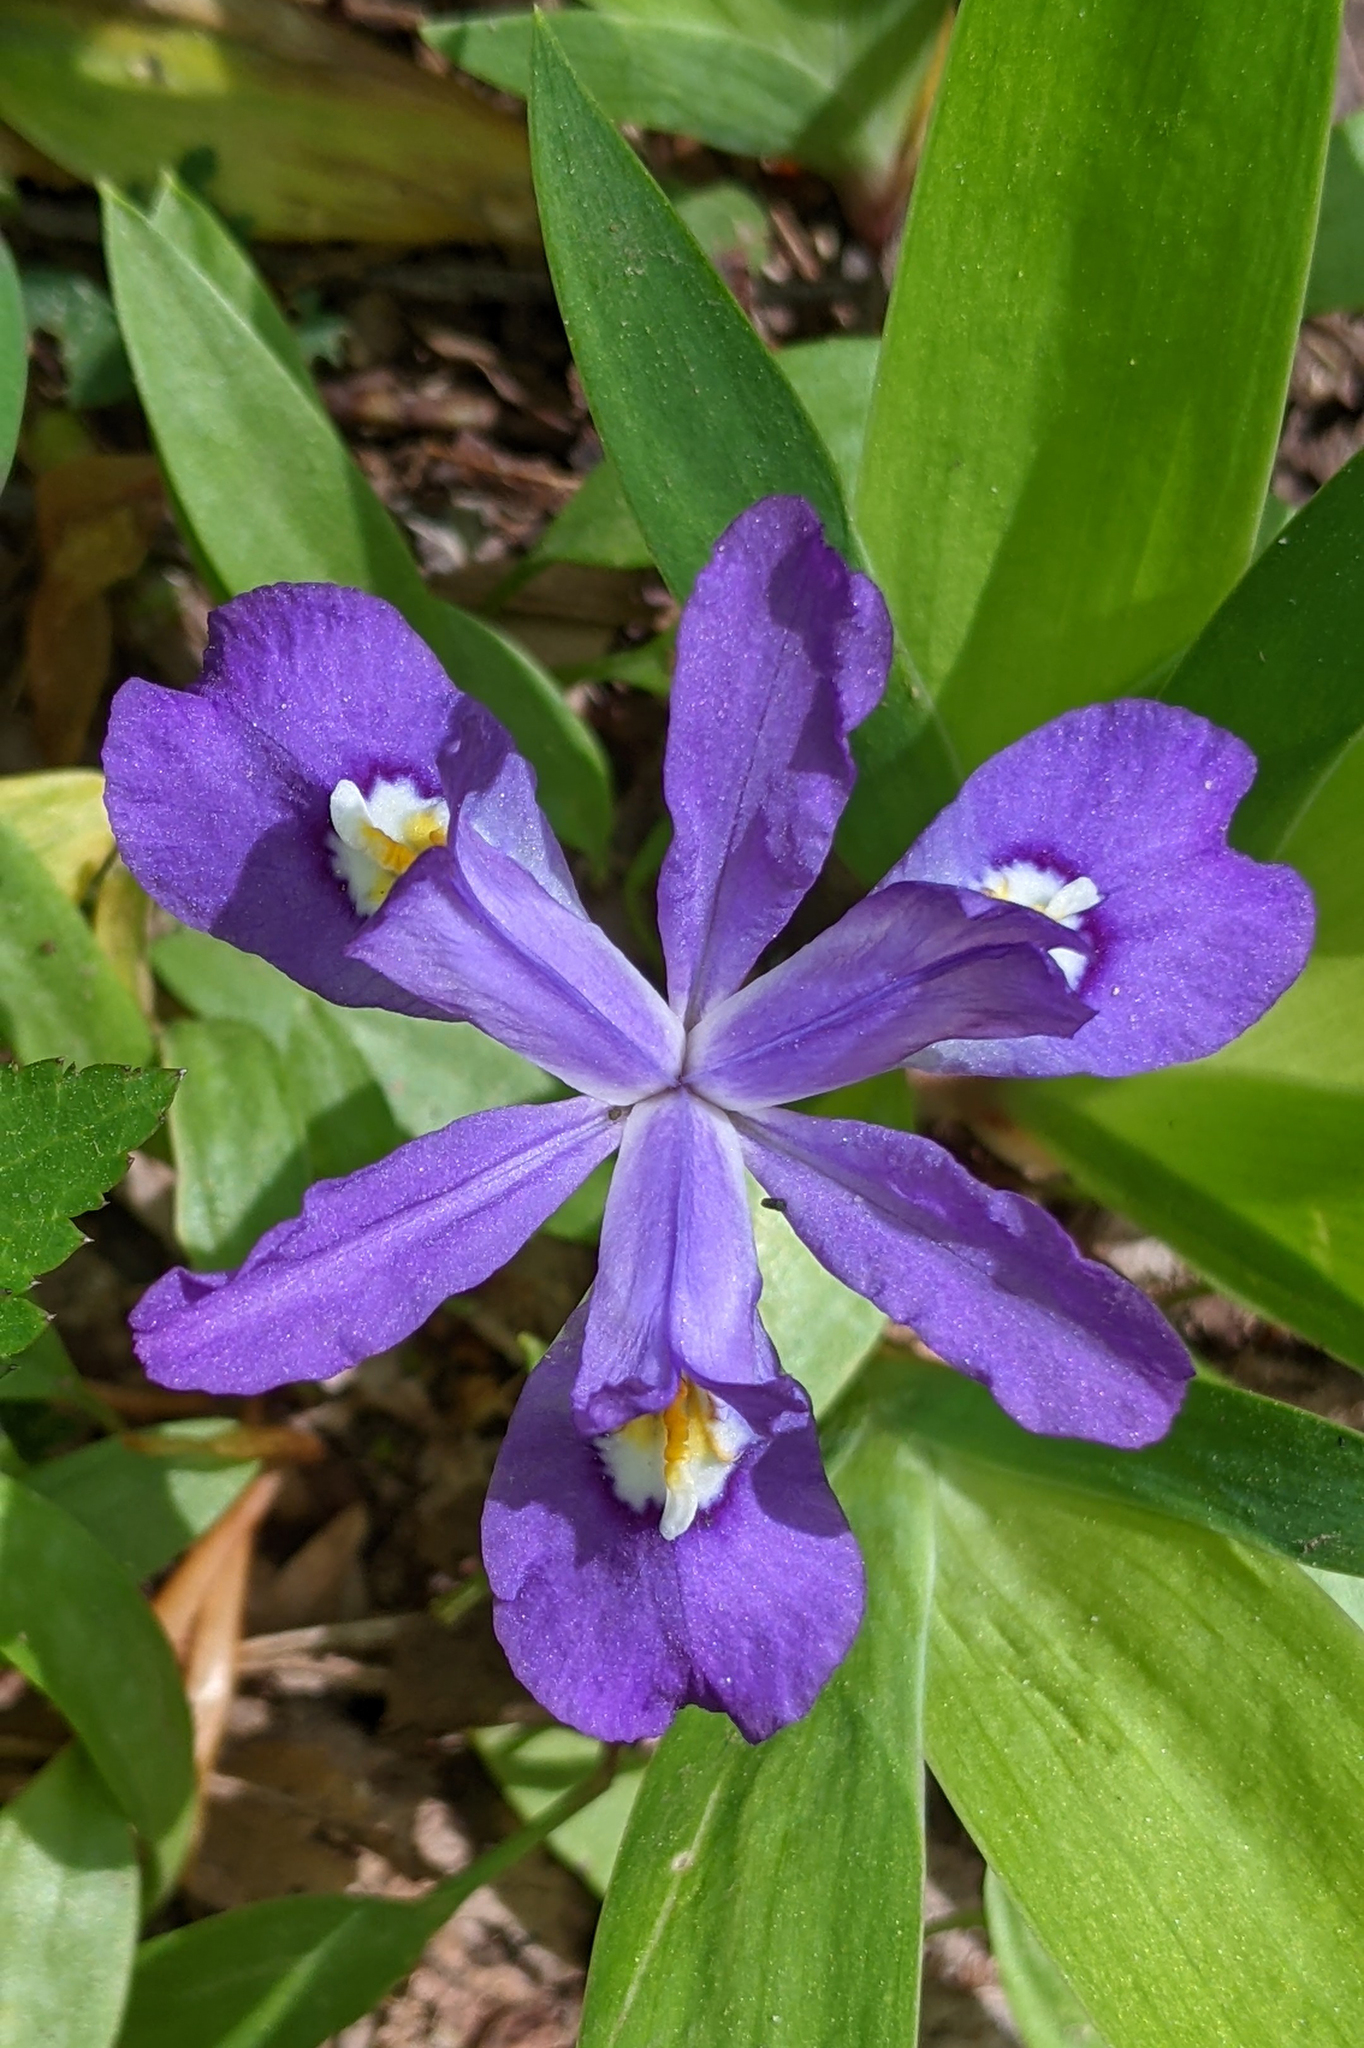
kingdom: Plantae
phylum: Tracheophyta
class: Liliopsida
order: Asparagales
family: Iridaceae
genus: Iris
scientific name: Iris cristata
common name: Crested iris
